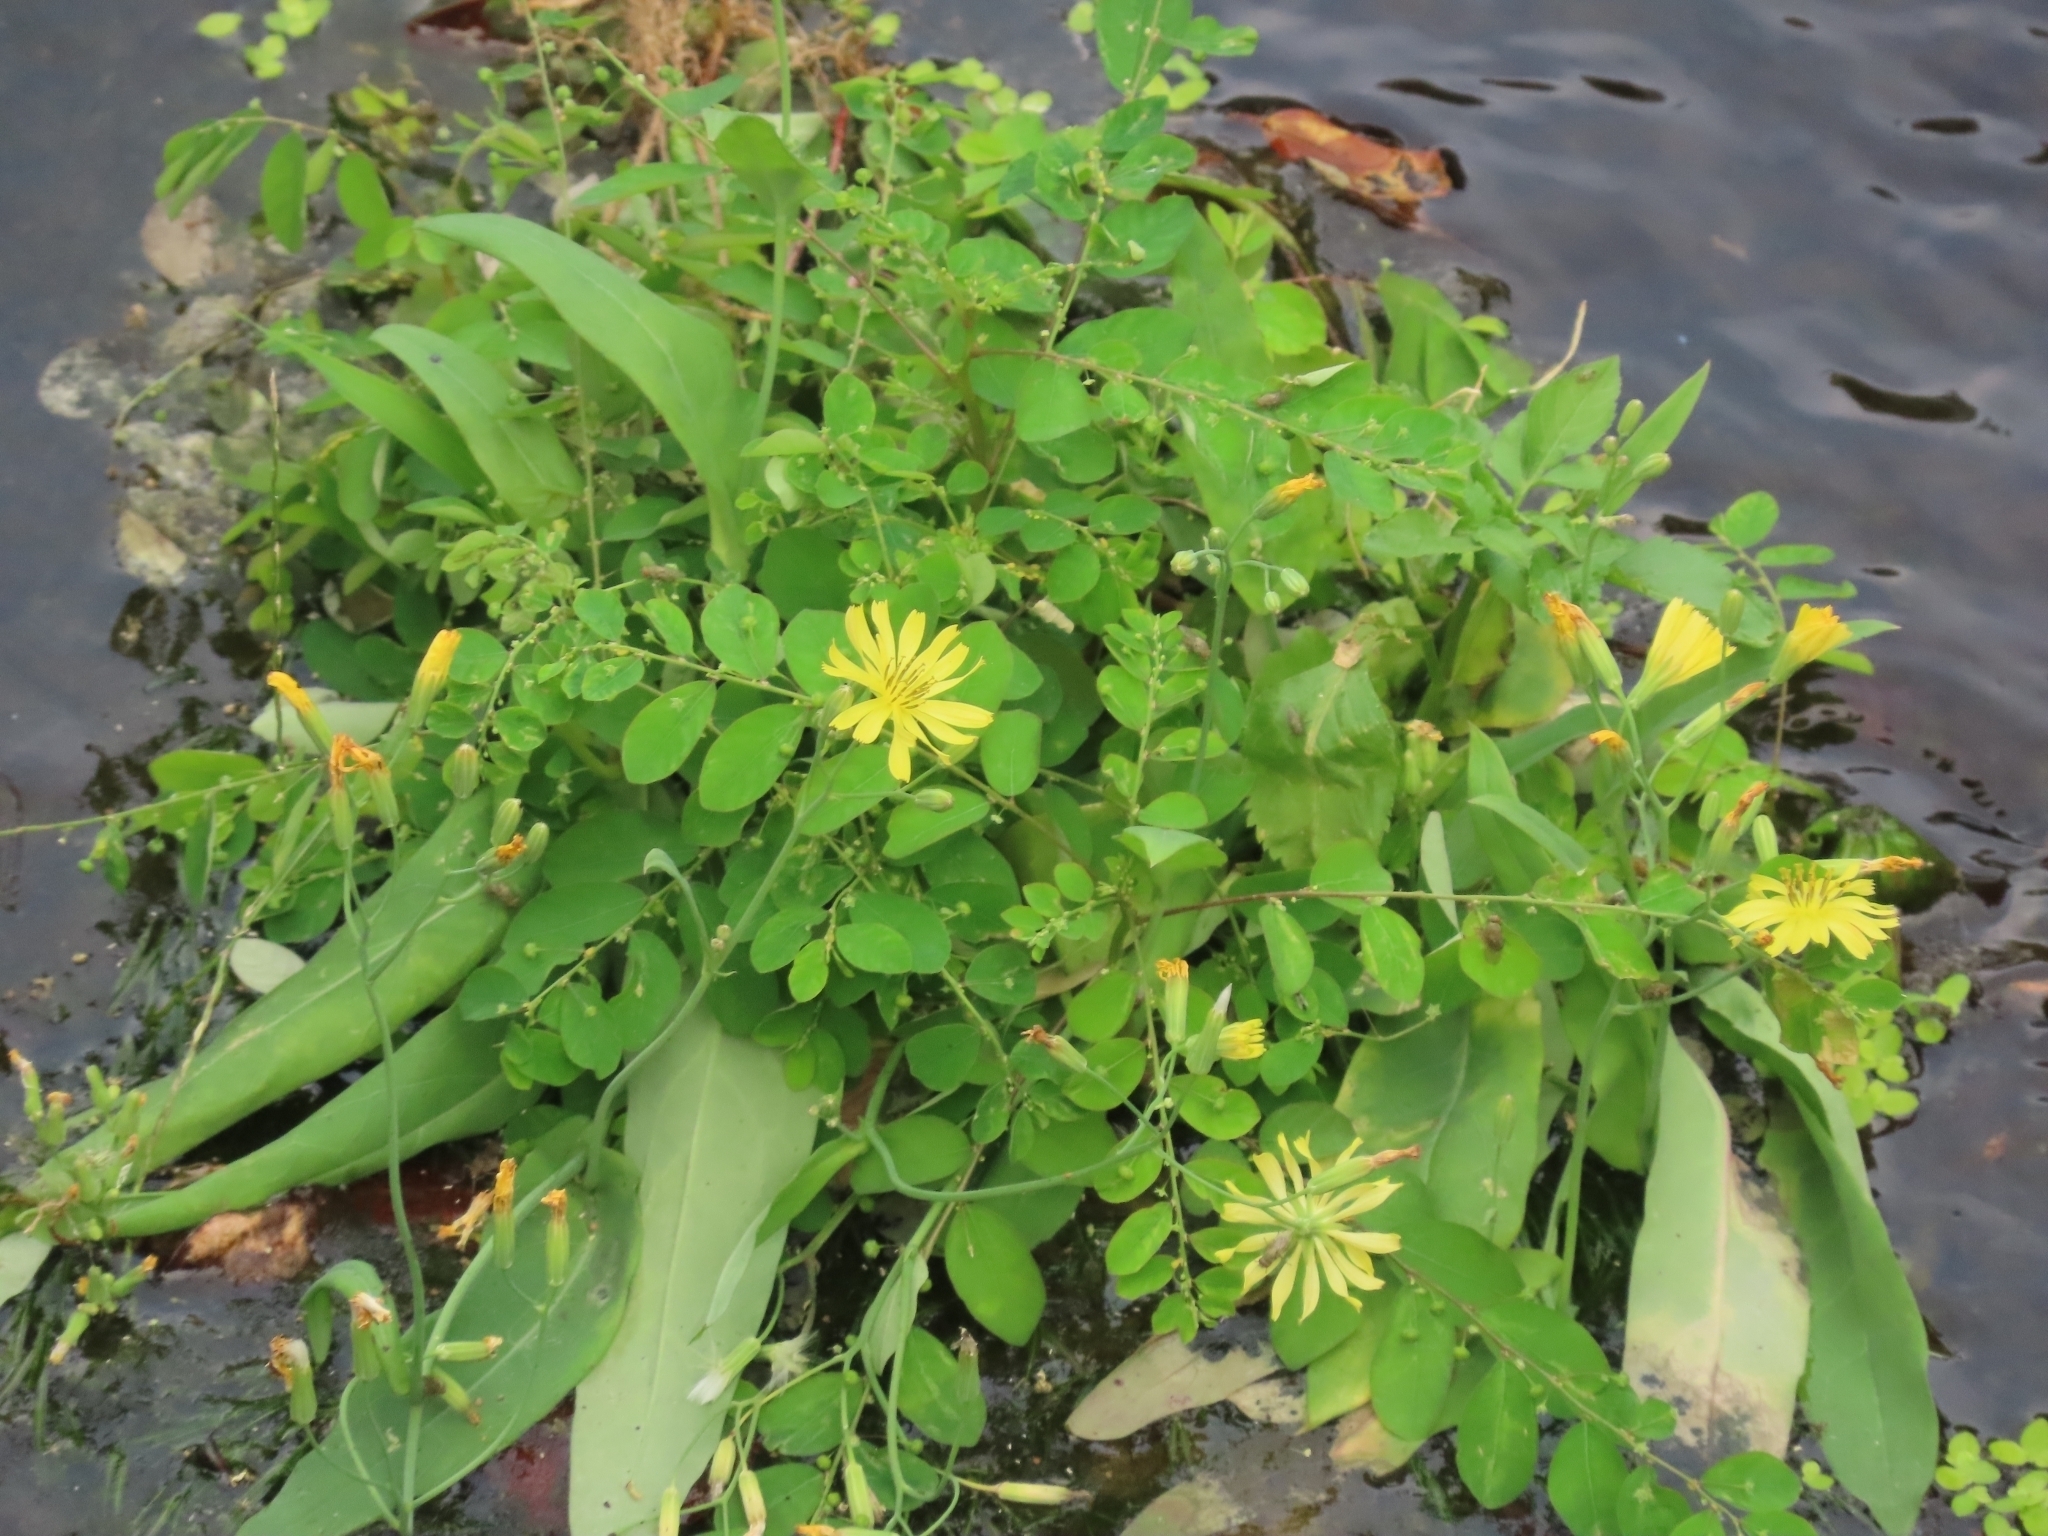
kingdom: Plantae
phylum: Tracheophyta
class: Magnoliopsida
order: Malpighiales
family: Phyllanthaceae
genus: Phyllanthus
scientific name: Phyllanthus tenellus
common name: Mascarene island leaf-flower
